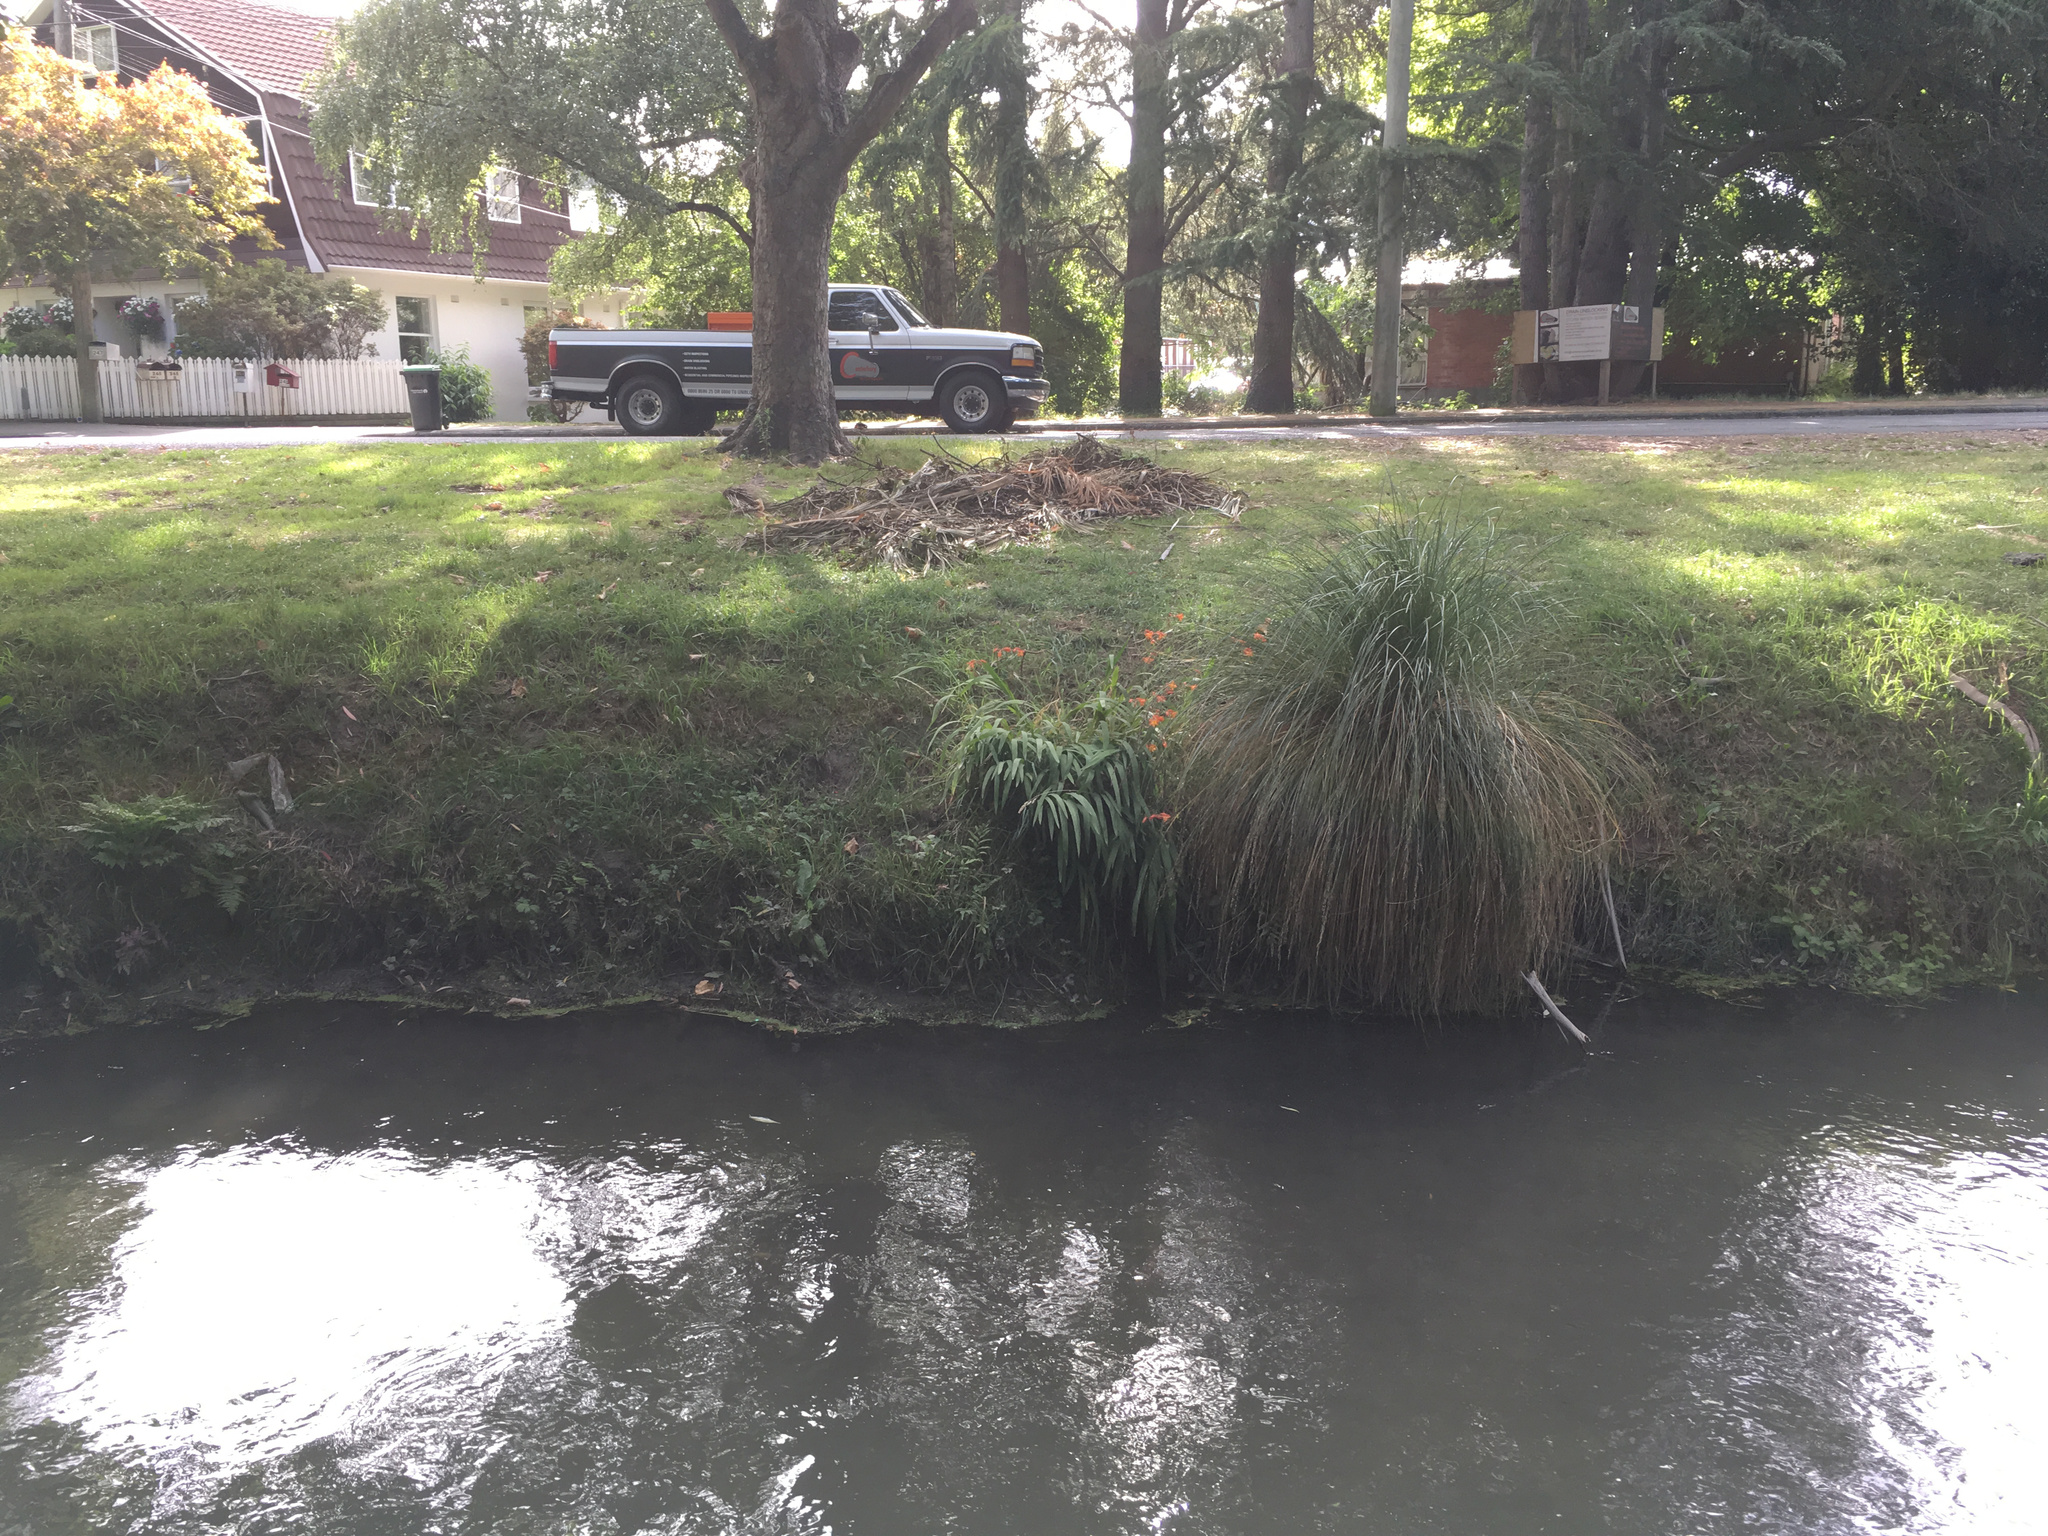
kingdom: Plantae
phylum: Tracheophyta
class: Liliopsida
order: Asparagales
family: Iridaceae
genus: Crocosmia
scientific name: Crocosmia crocosmiiflora
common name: Montbretia
